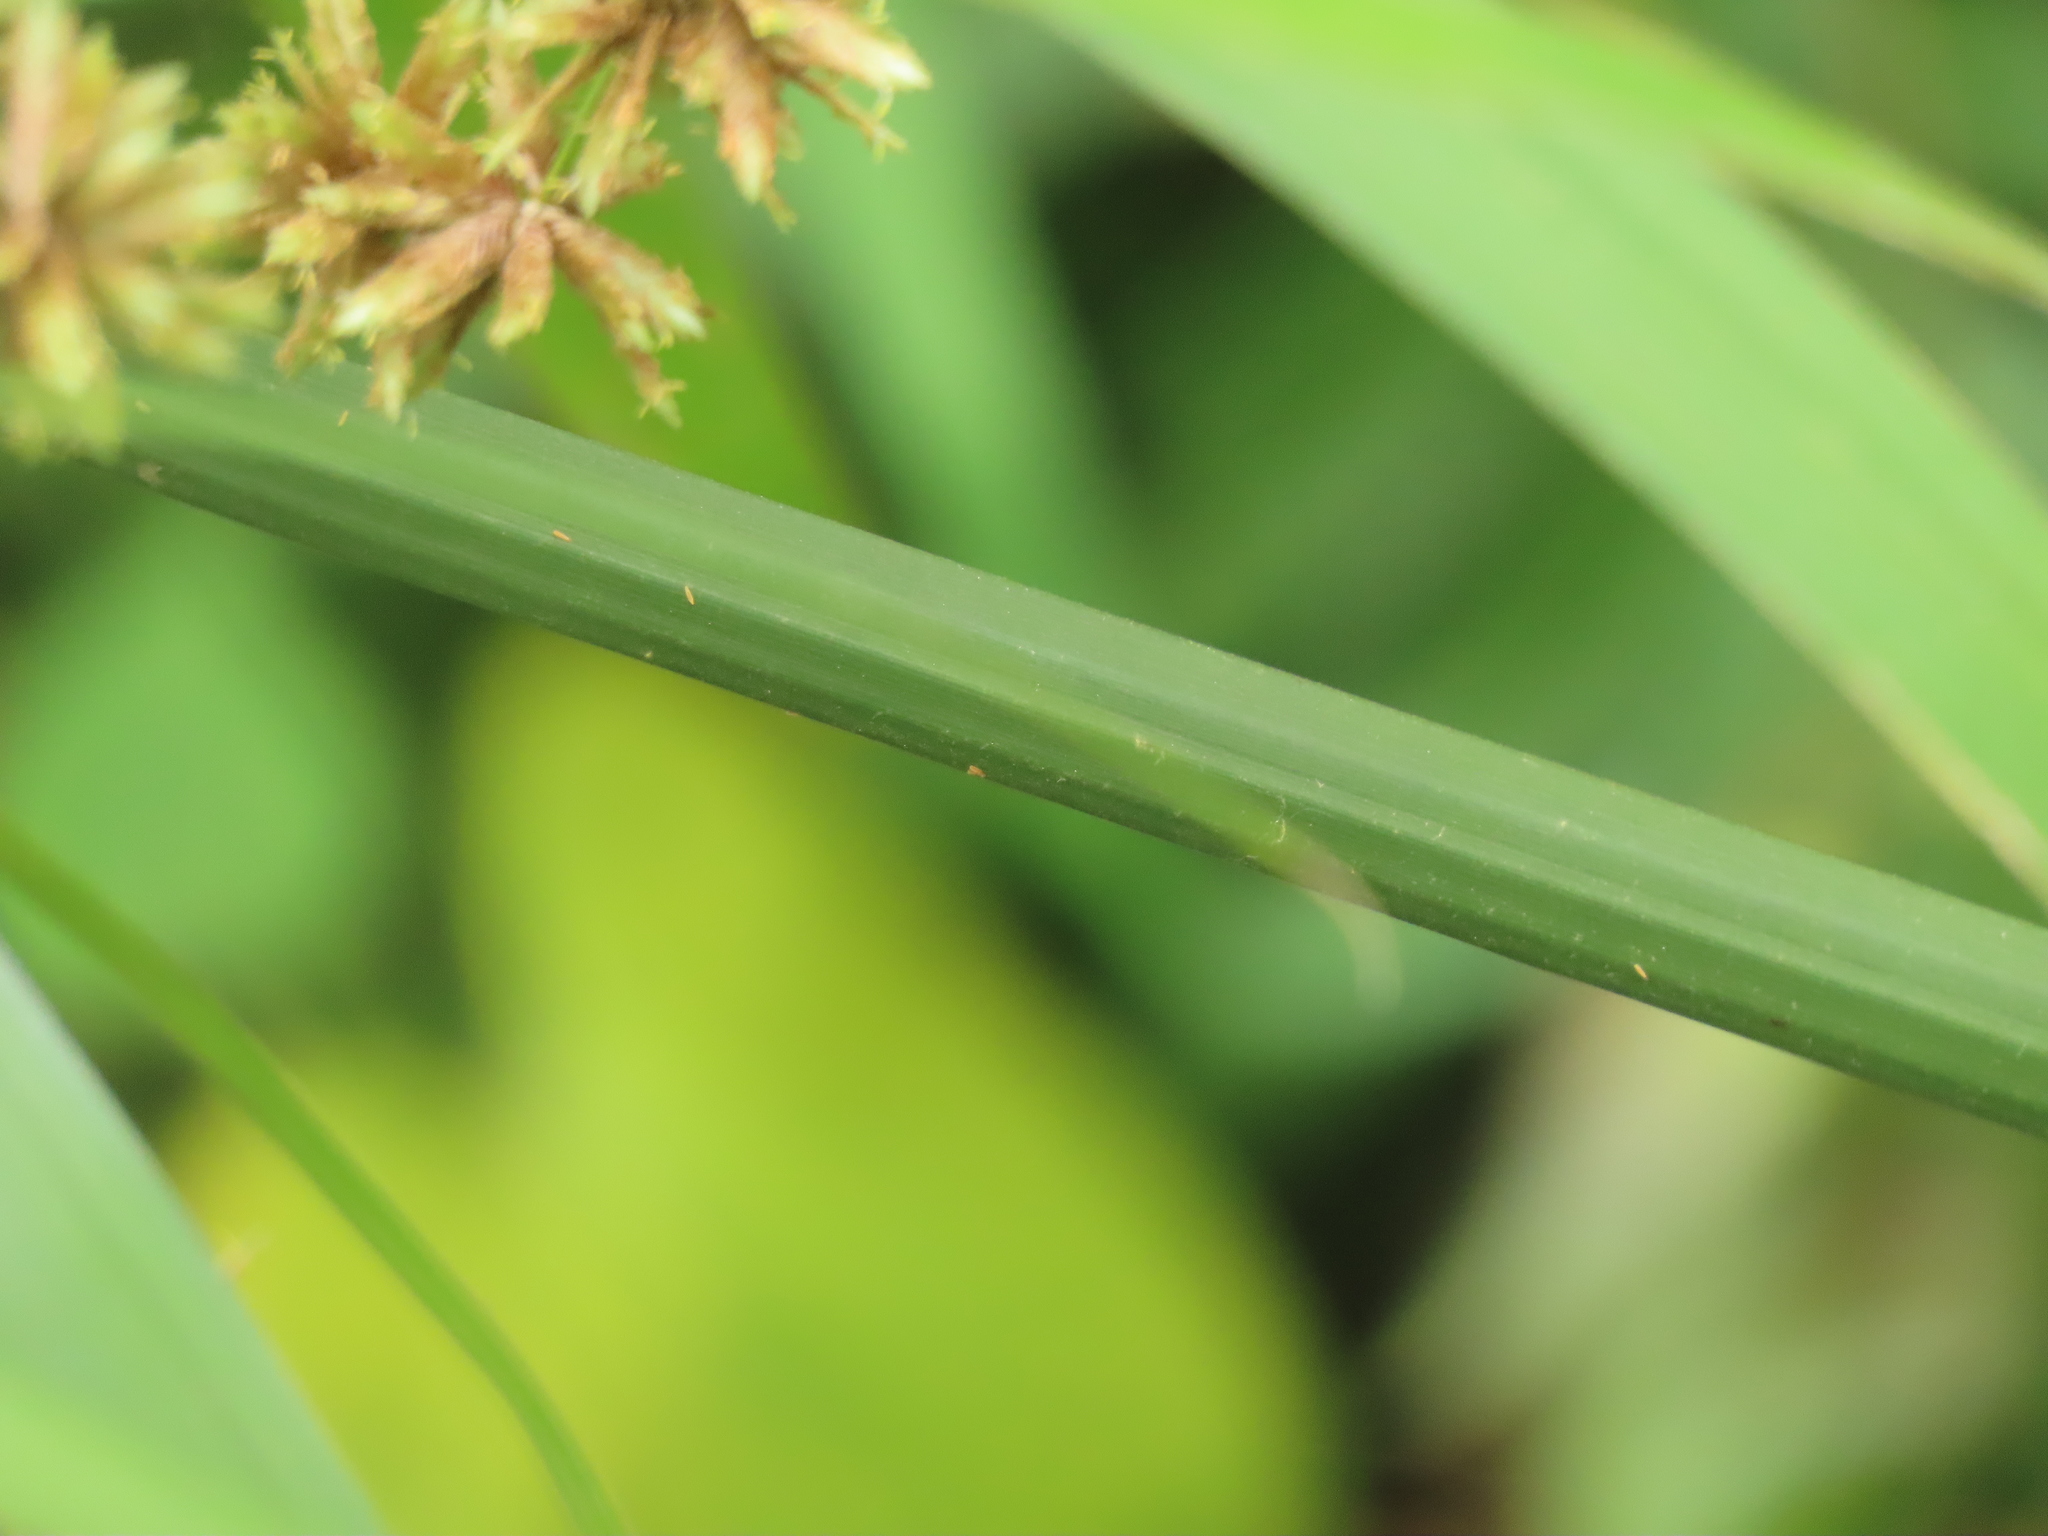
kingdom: Plantae
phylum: Tracheophyta
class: Liliopsida
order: Poales
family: Cyperaceae
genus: Cyperus
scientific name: Cyperus alternifolius
